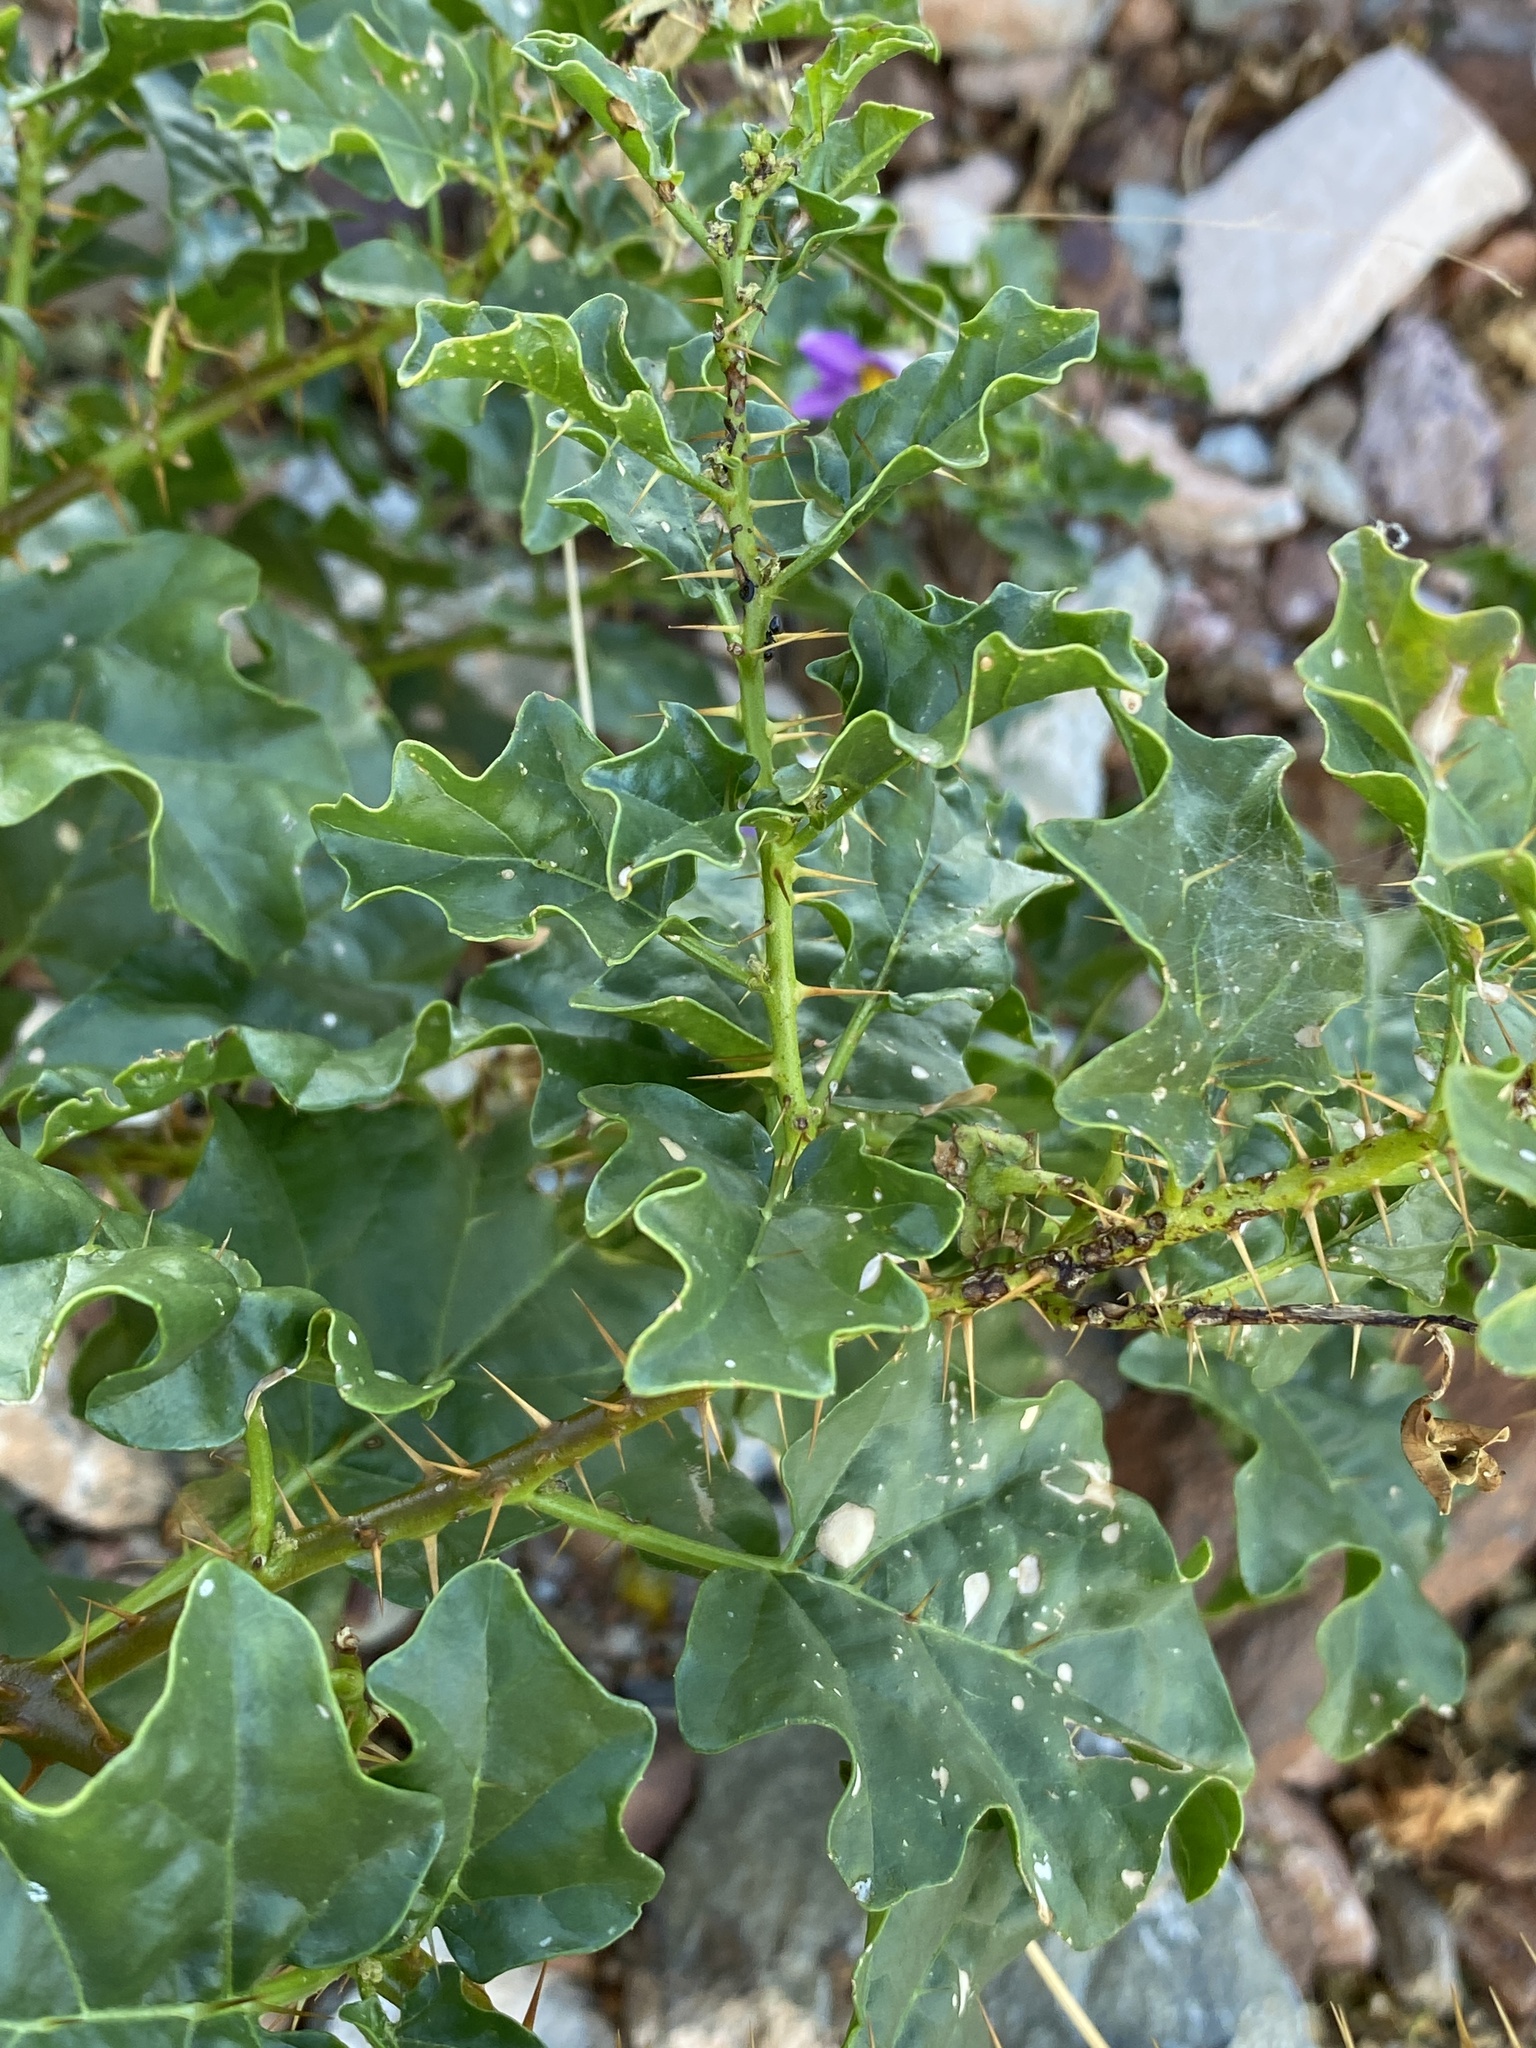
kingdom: Plantae
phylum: Tracheophyta
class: Magnoliopsida
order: Solanales
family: Solanaceae
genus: Solanum
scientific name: Solanum humile
